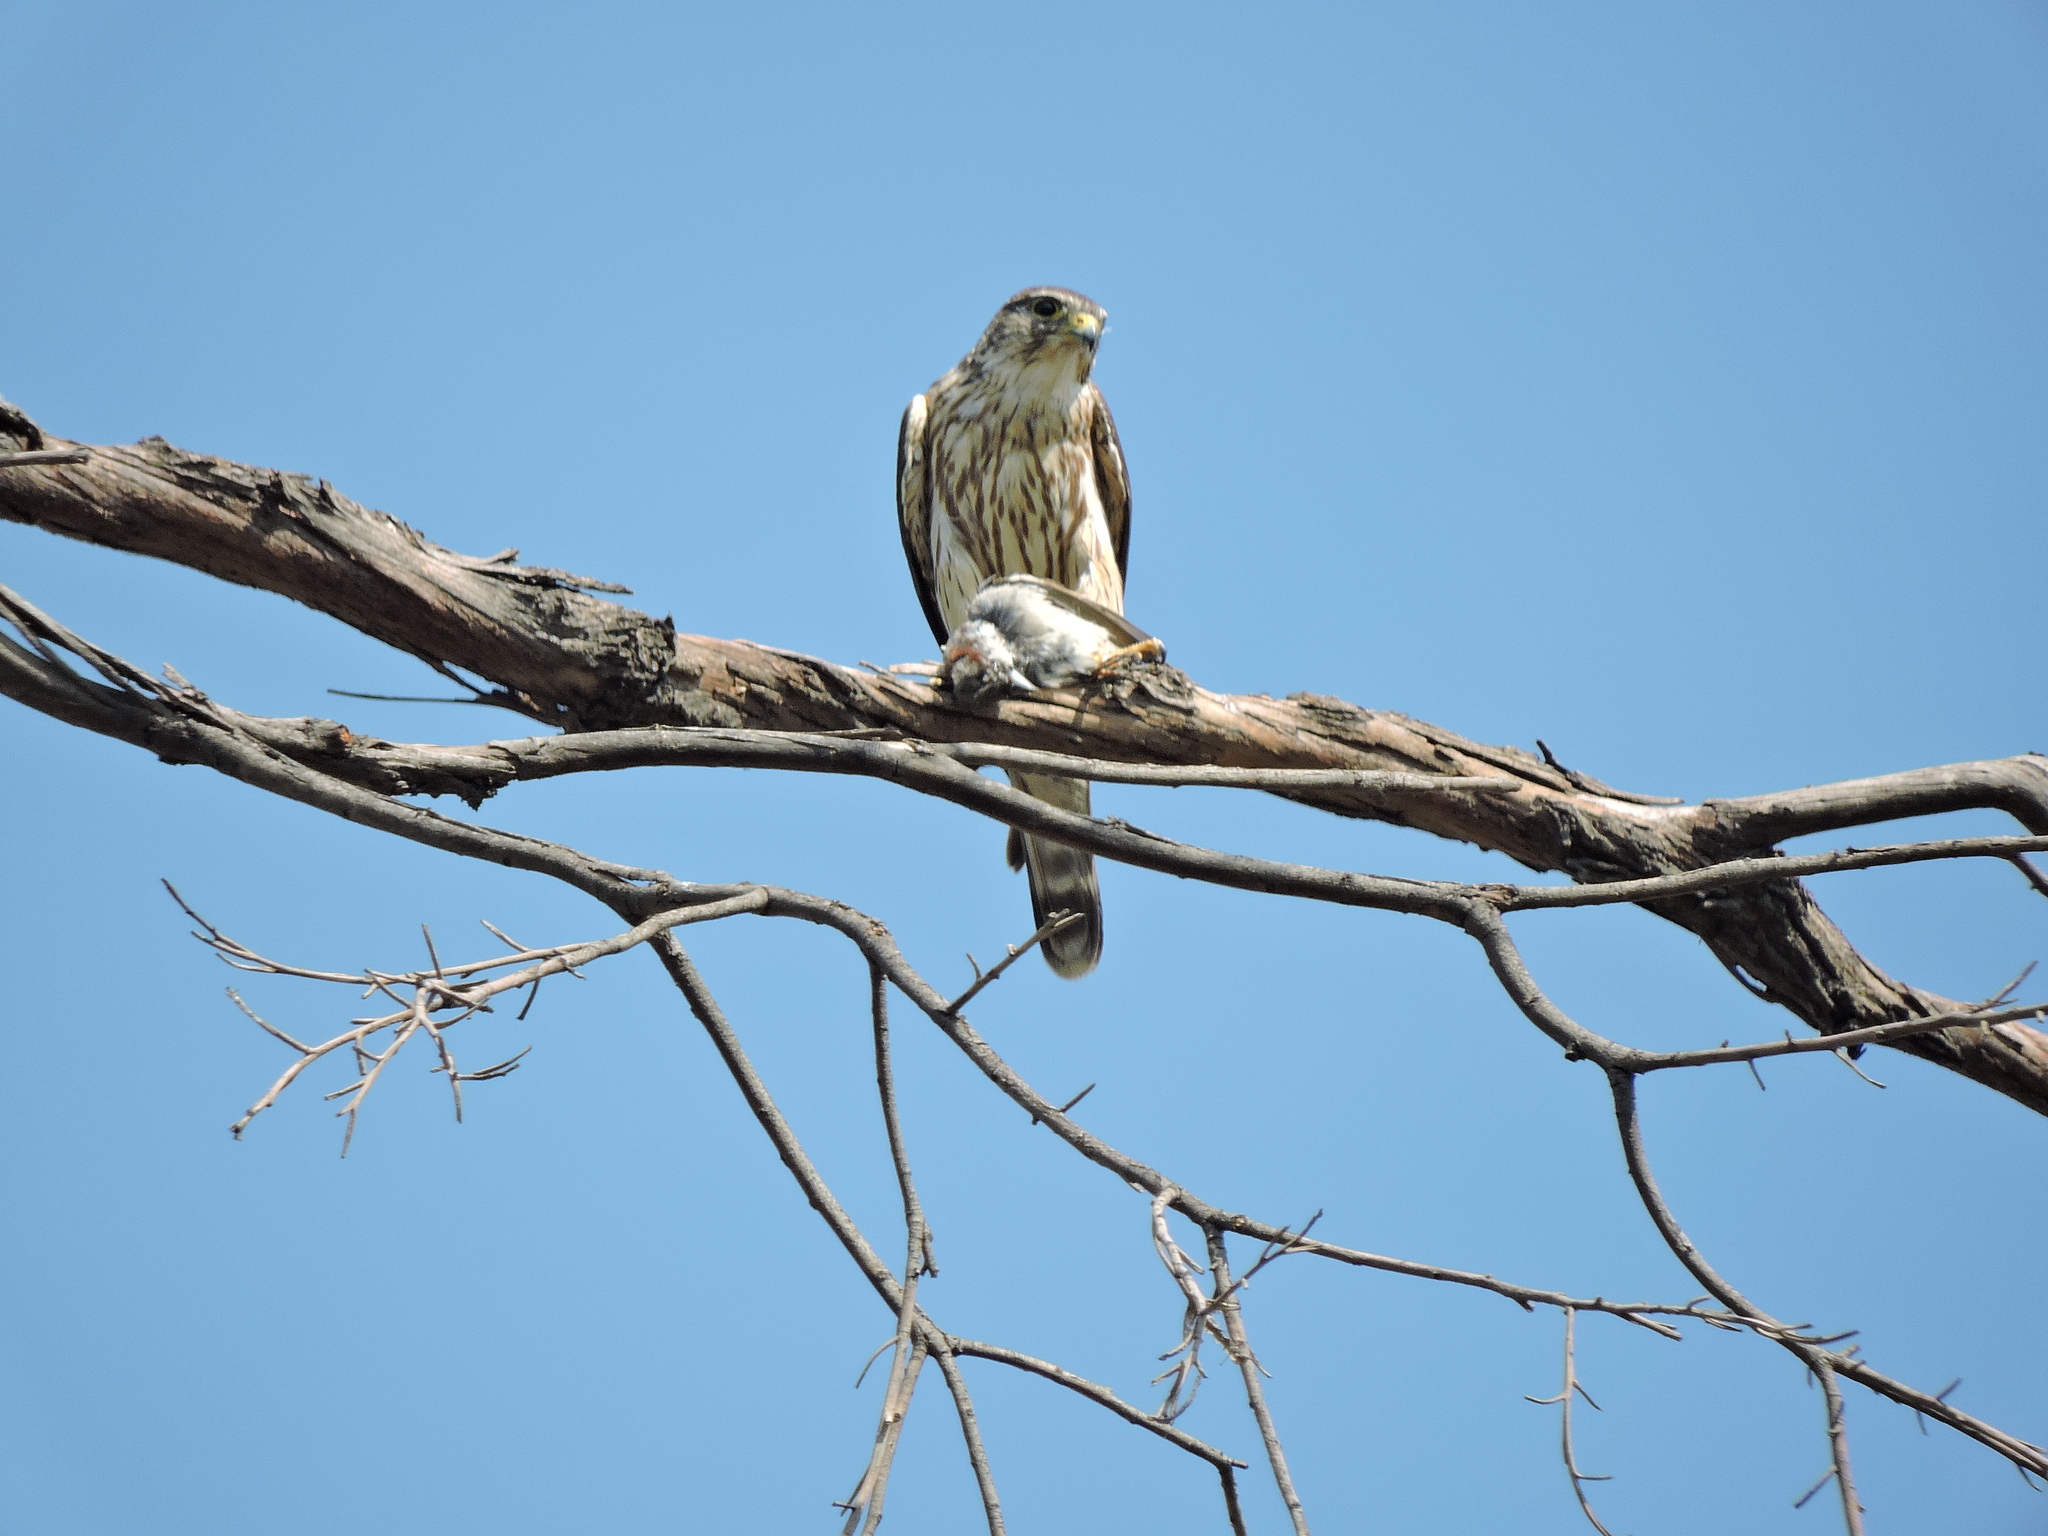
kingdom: Animalia
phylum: Chordata
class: Aves
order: Falconiformes
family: Falconidae
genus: Falco
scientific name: Falco columbarius
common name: Merlin
